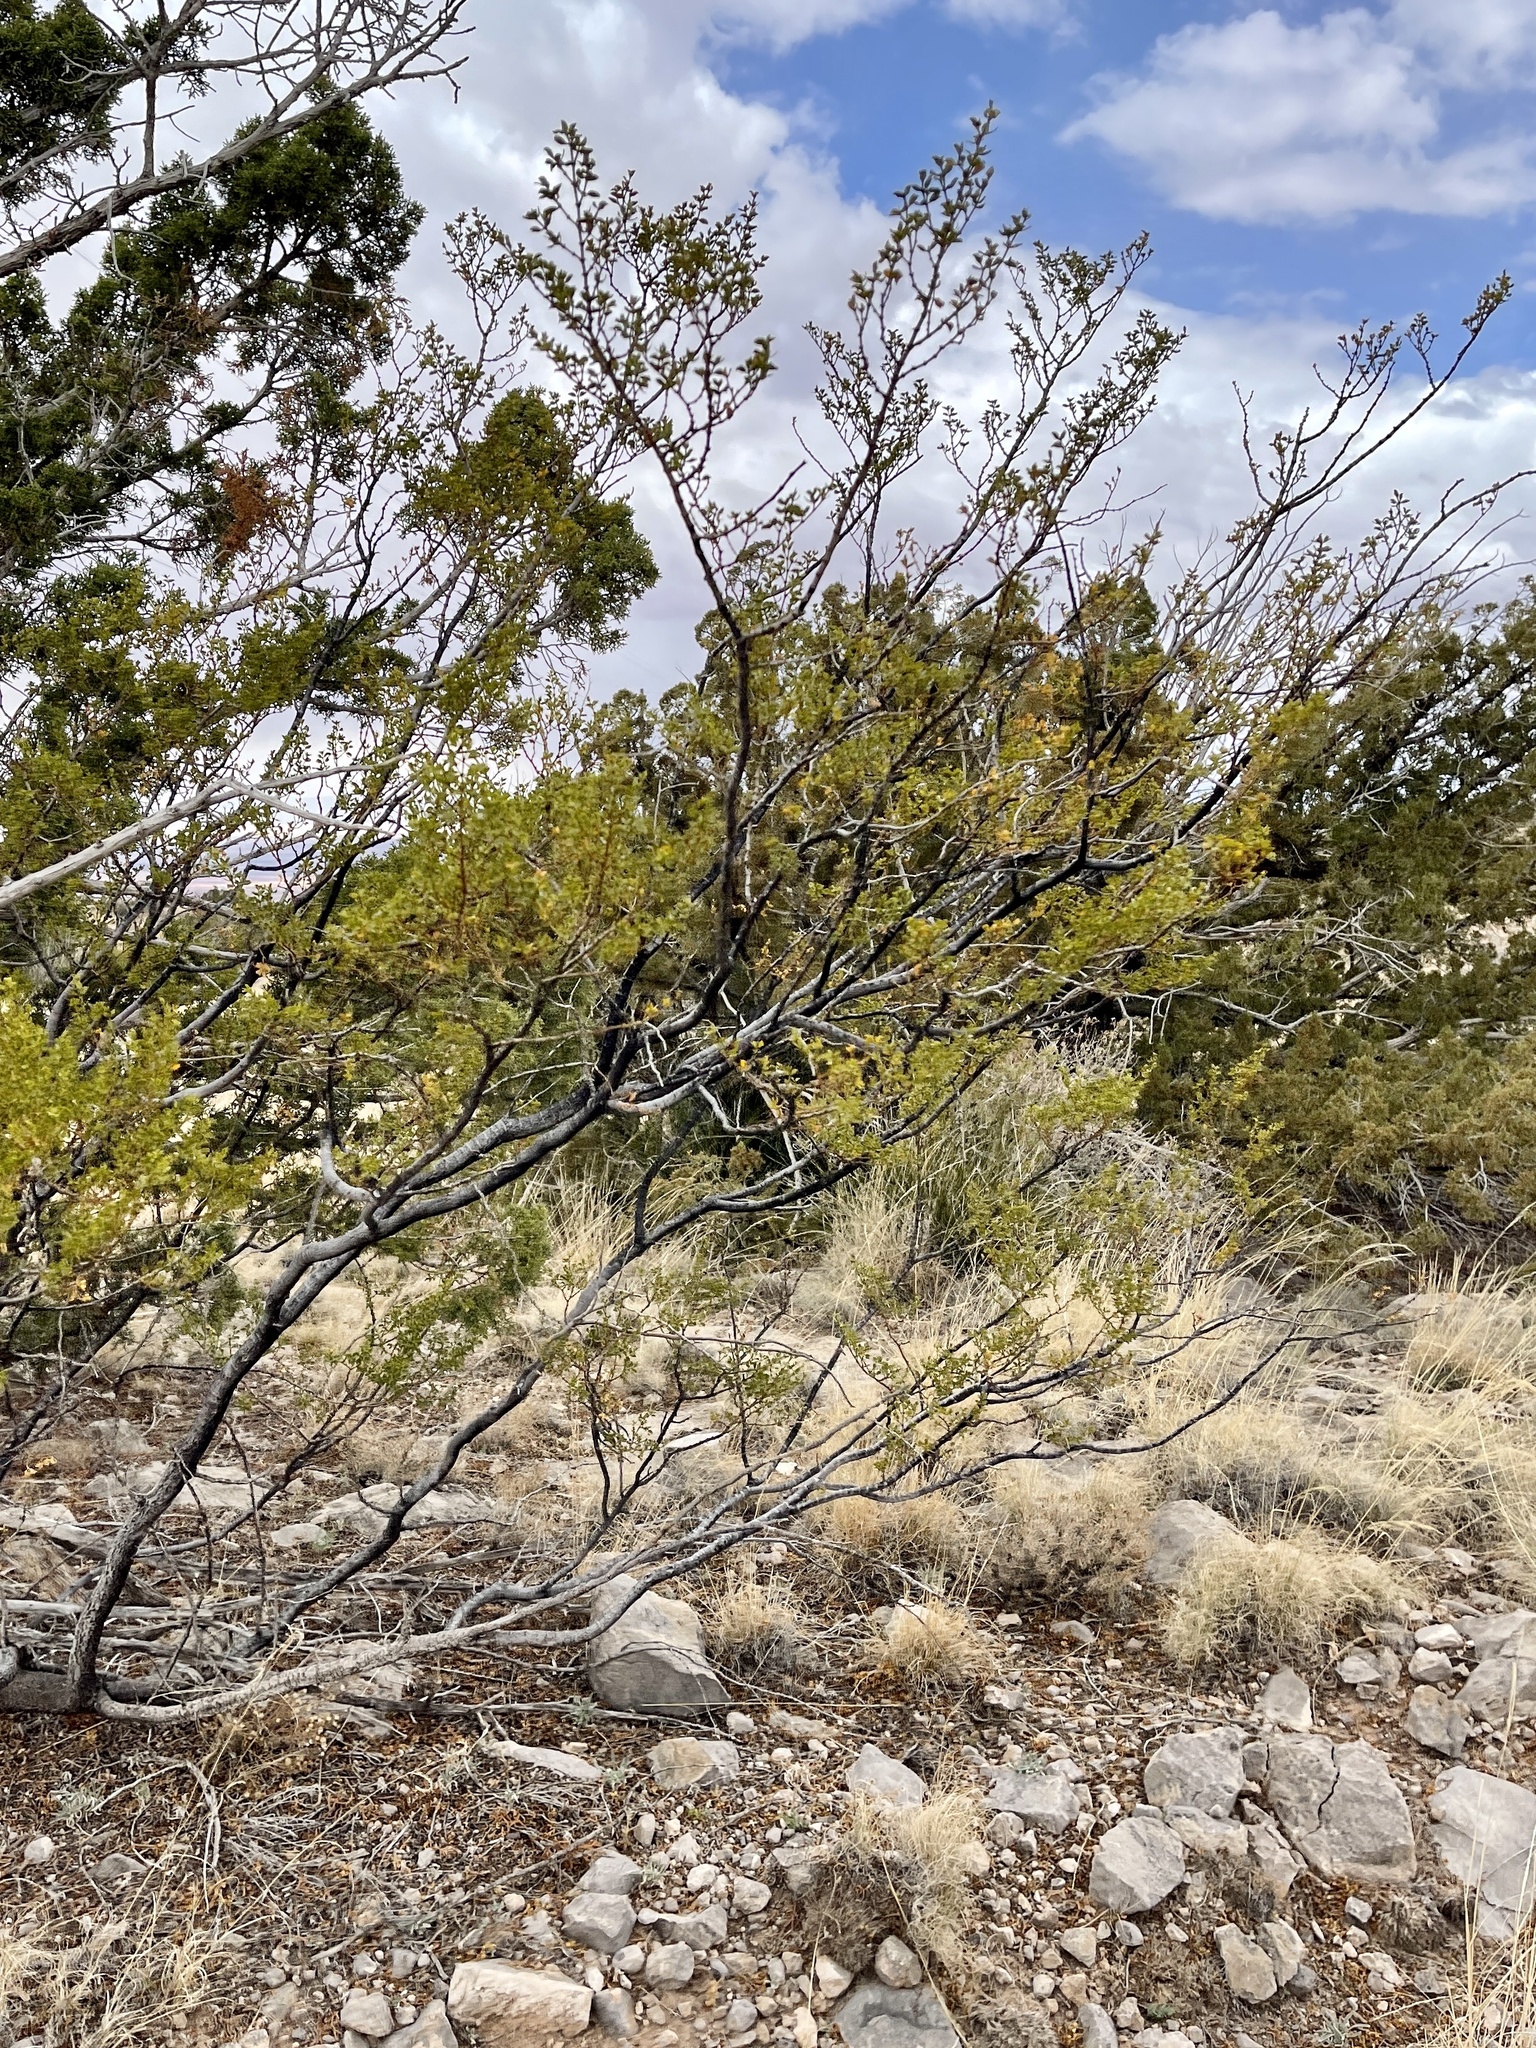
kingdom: Plantae
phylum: Tracheophyta
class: Magnoliopsida
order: Zygophyllales
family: Zygophyllaceae
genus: Larrea
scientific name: Larrea tridentata
